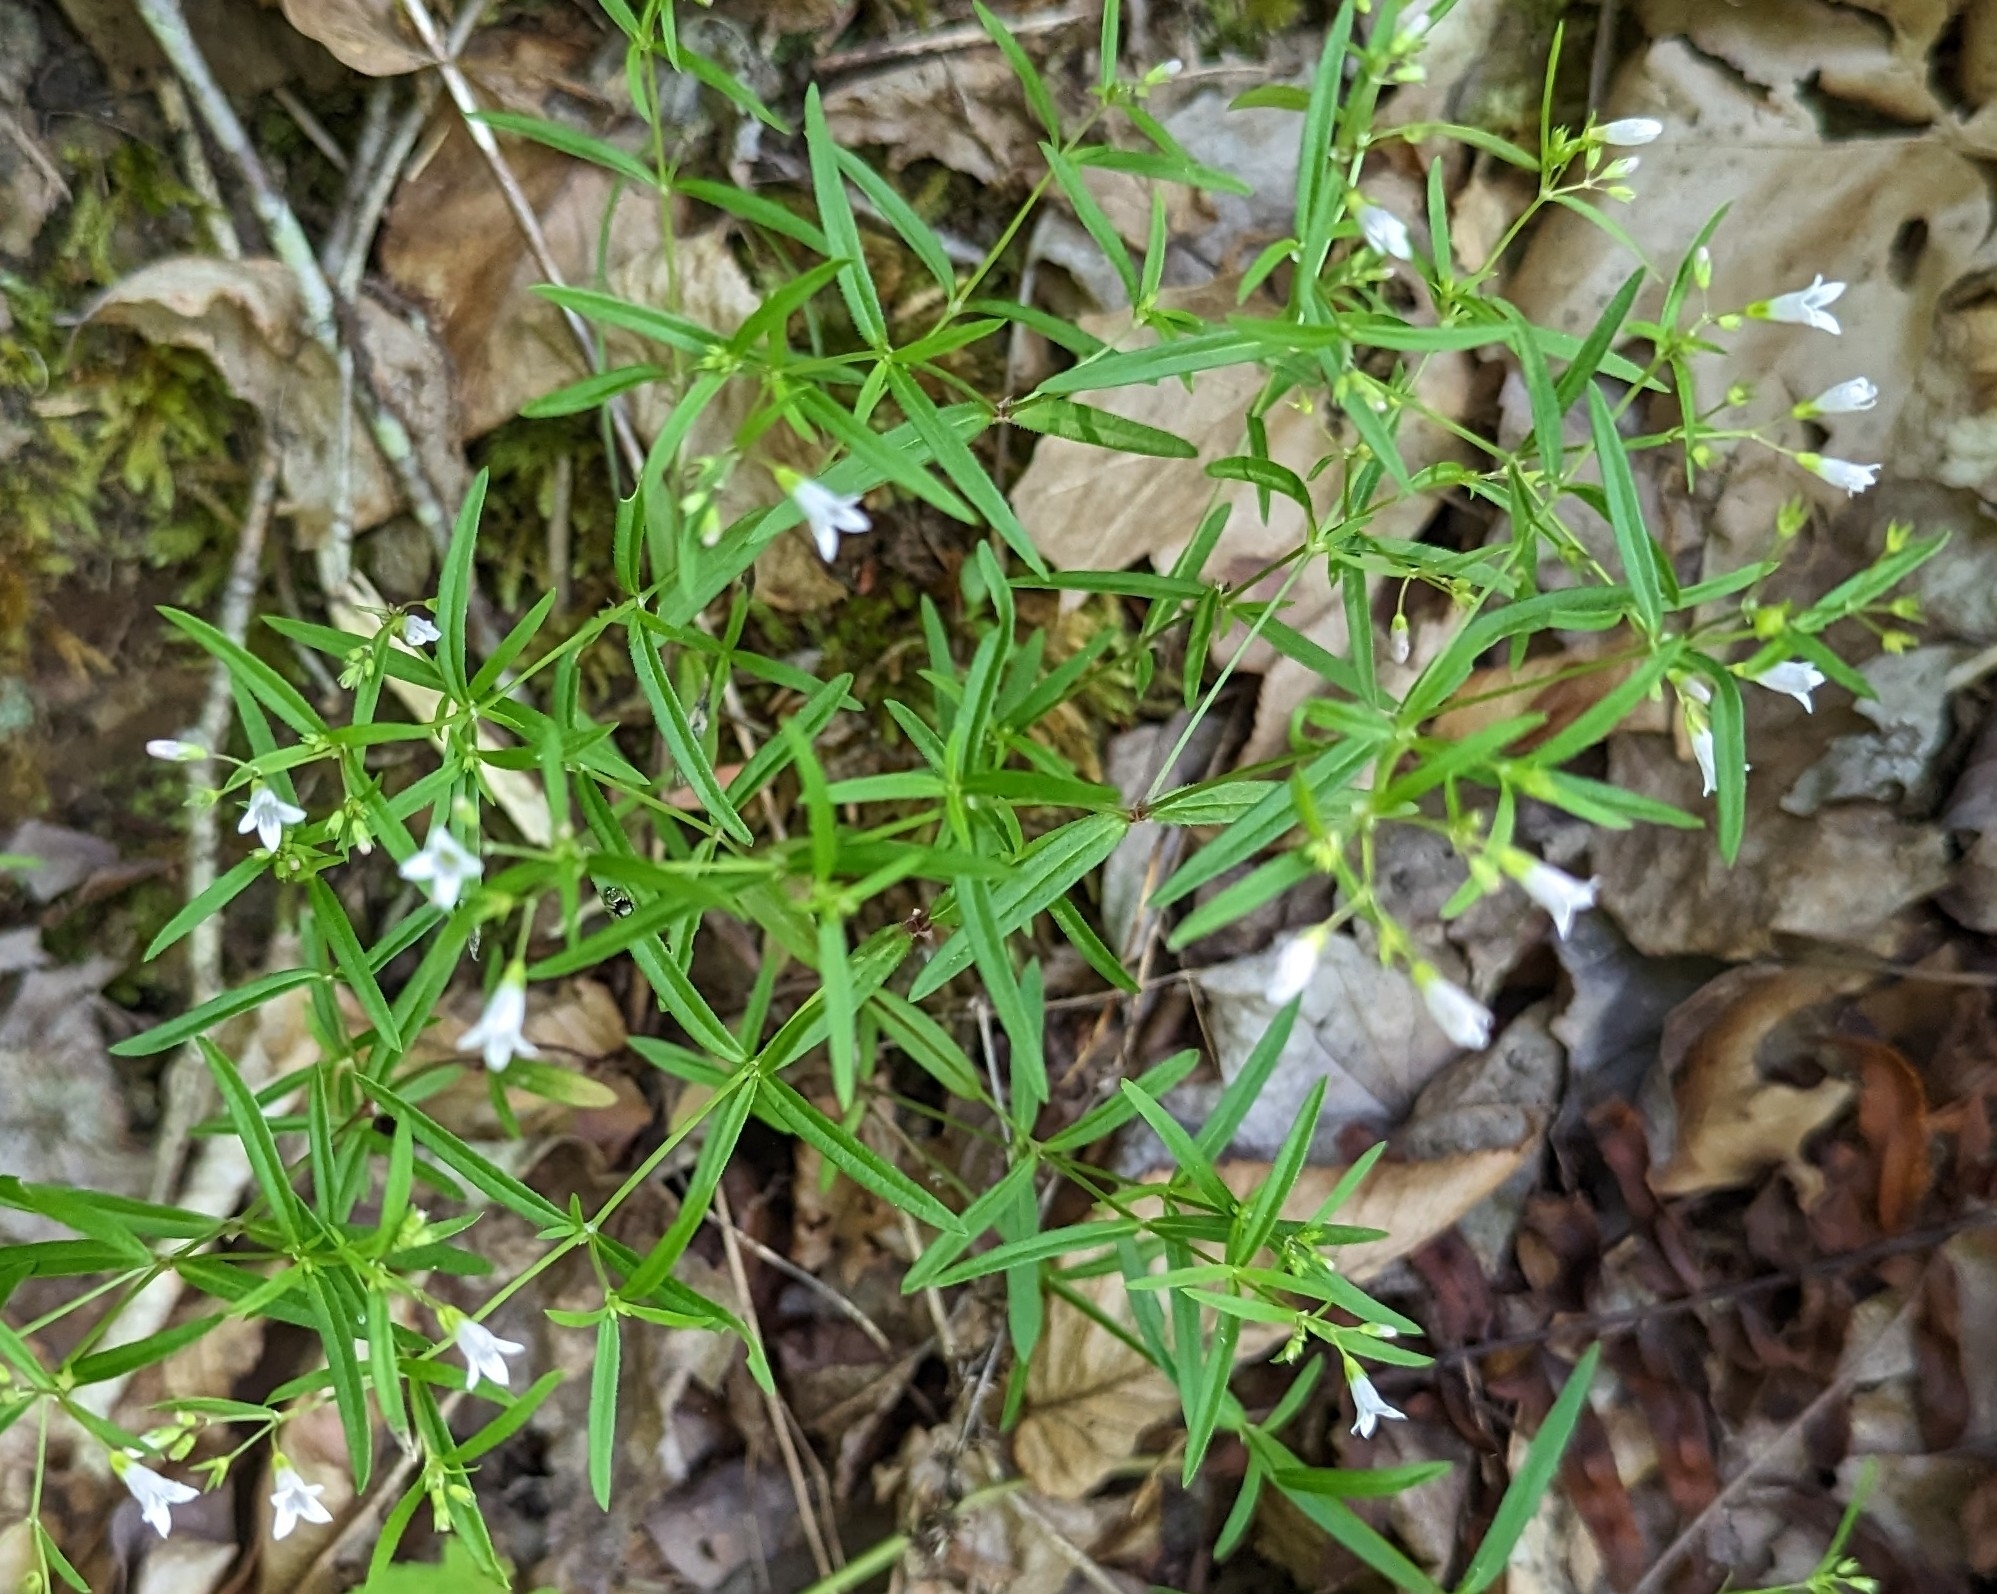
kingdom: Plantae
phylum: Tracheophyta
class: Magnoliopsida
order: Gentianales
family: Rubiaceae
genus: Houstonia
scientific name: Houstonia purpurea
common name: Summer bluet
